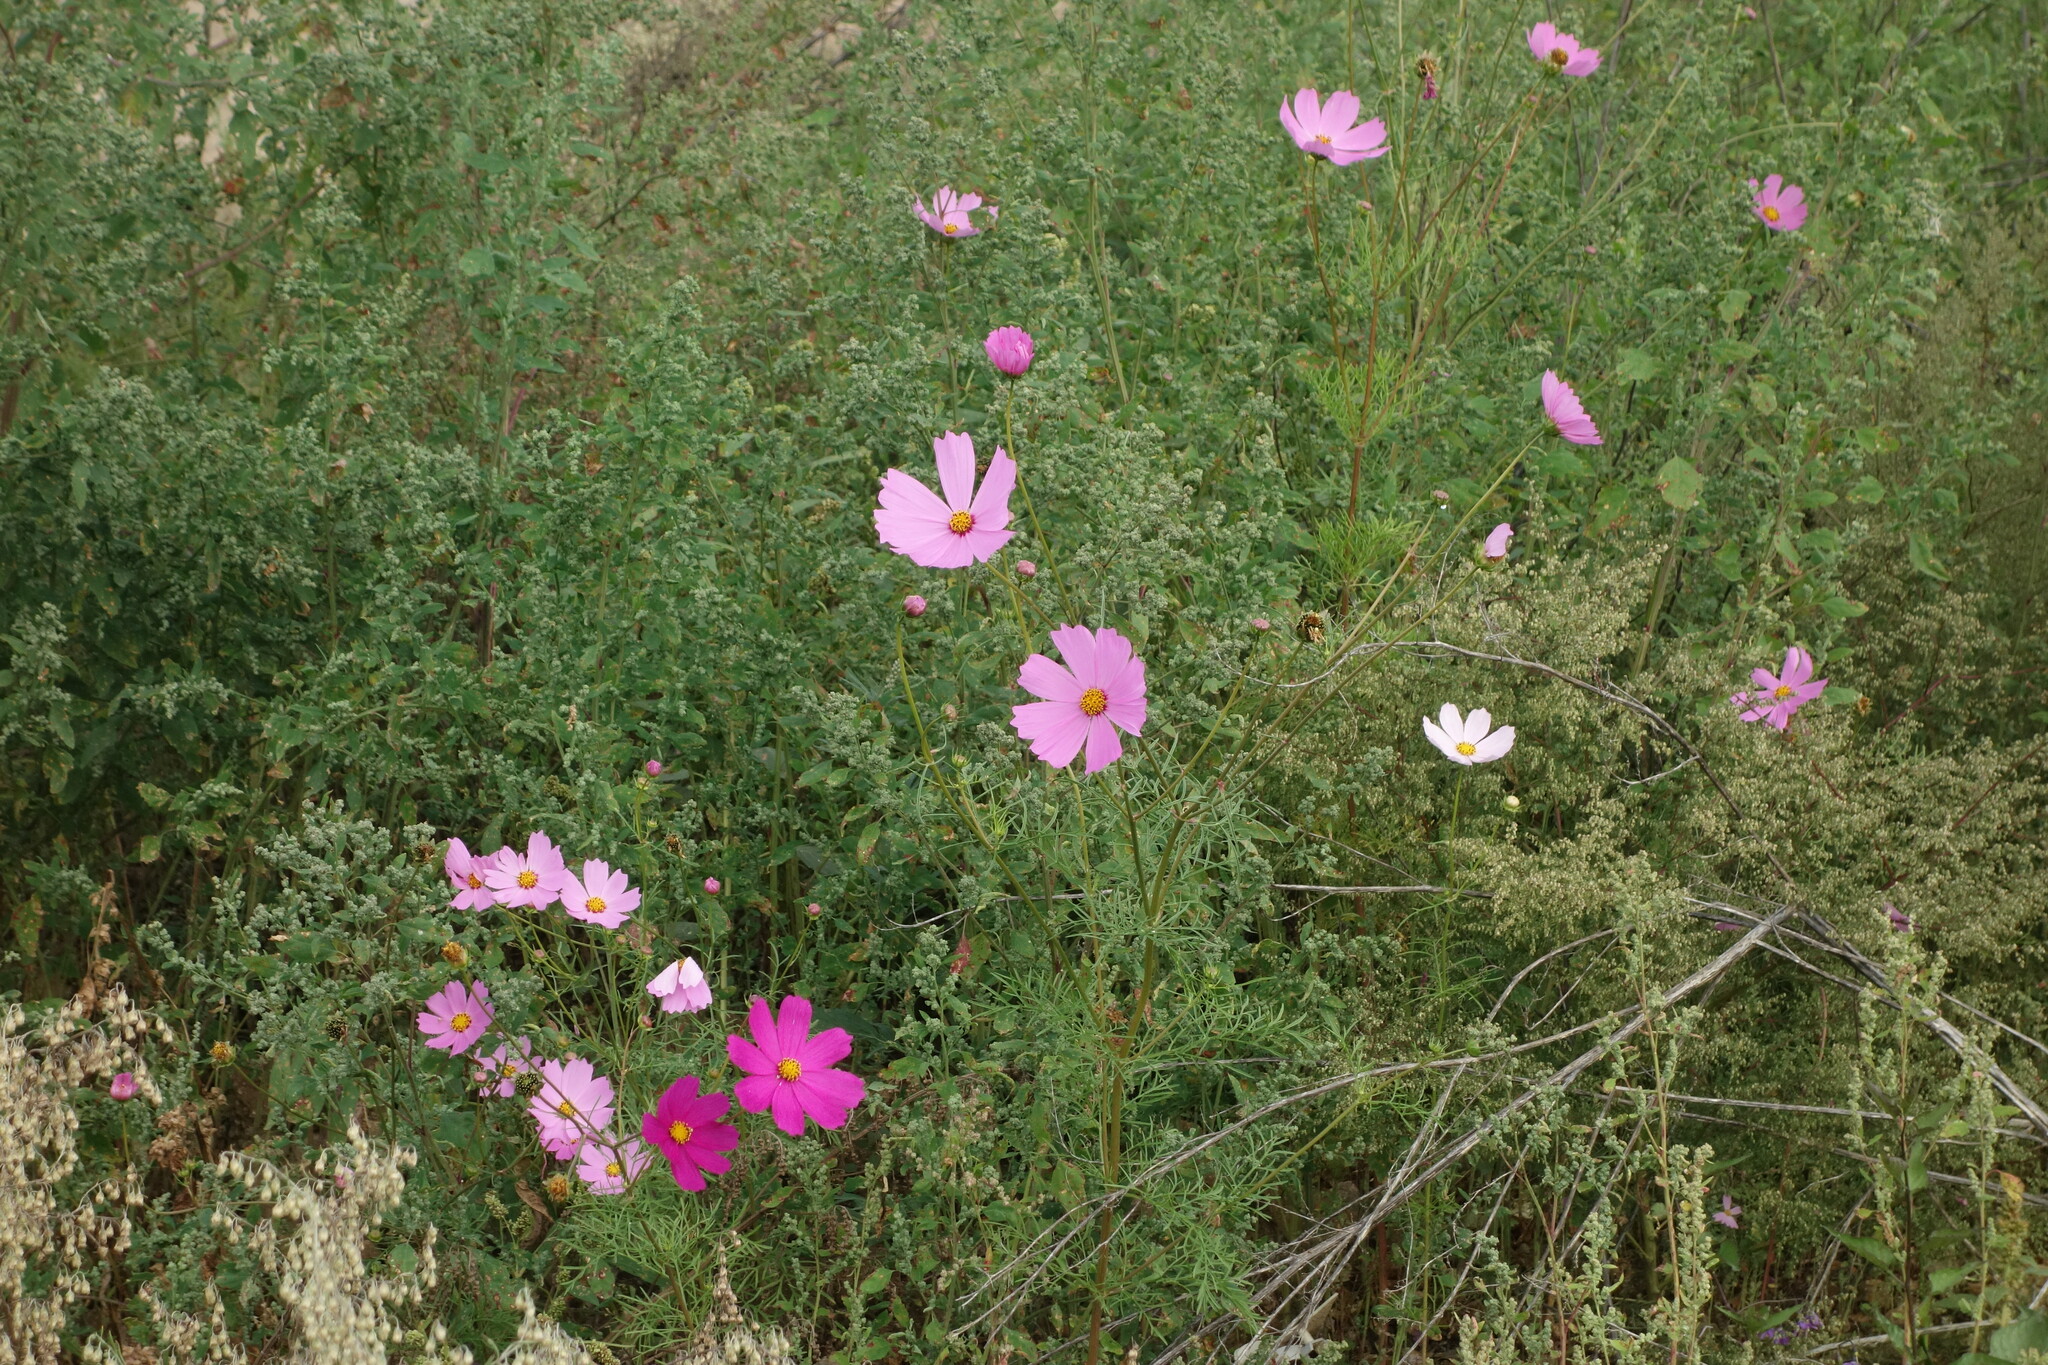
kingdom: Plantae
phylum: Tracheophyta
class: Magnoliopsida
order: Asterales
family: Asteraceae
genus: Cosmos
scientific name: Cosmos bipinnatus
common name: Garden cosmos
